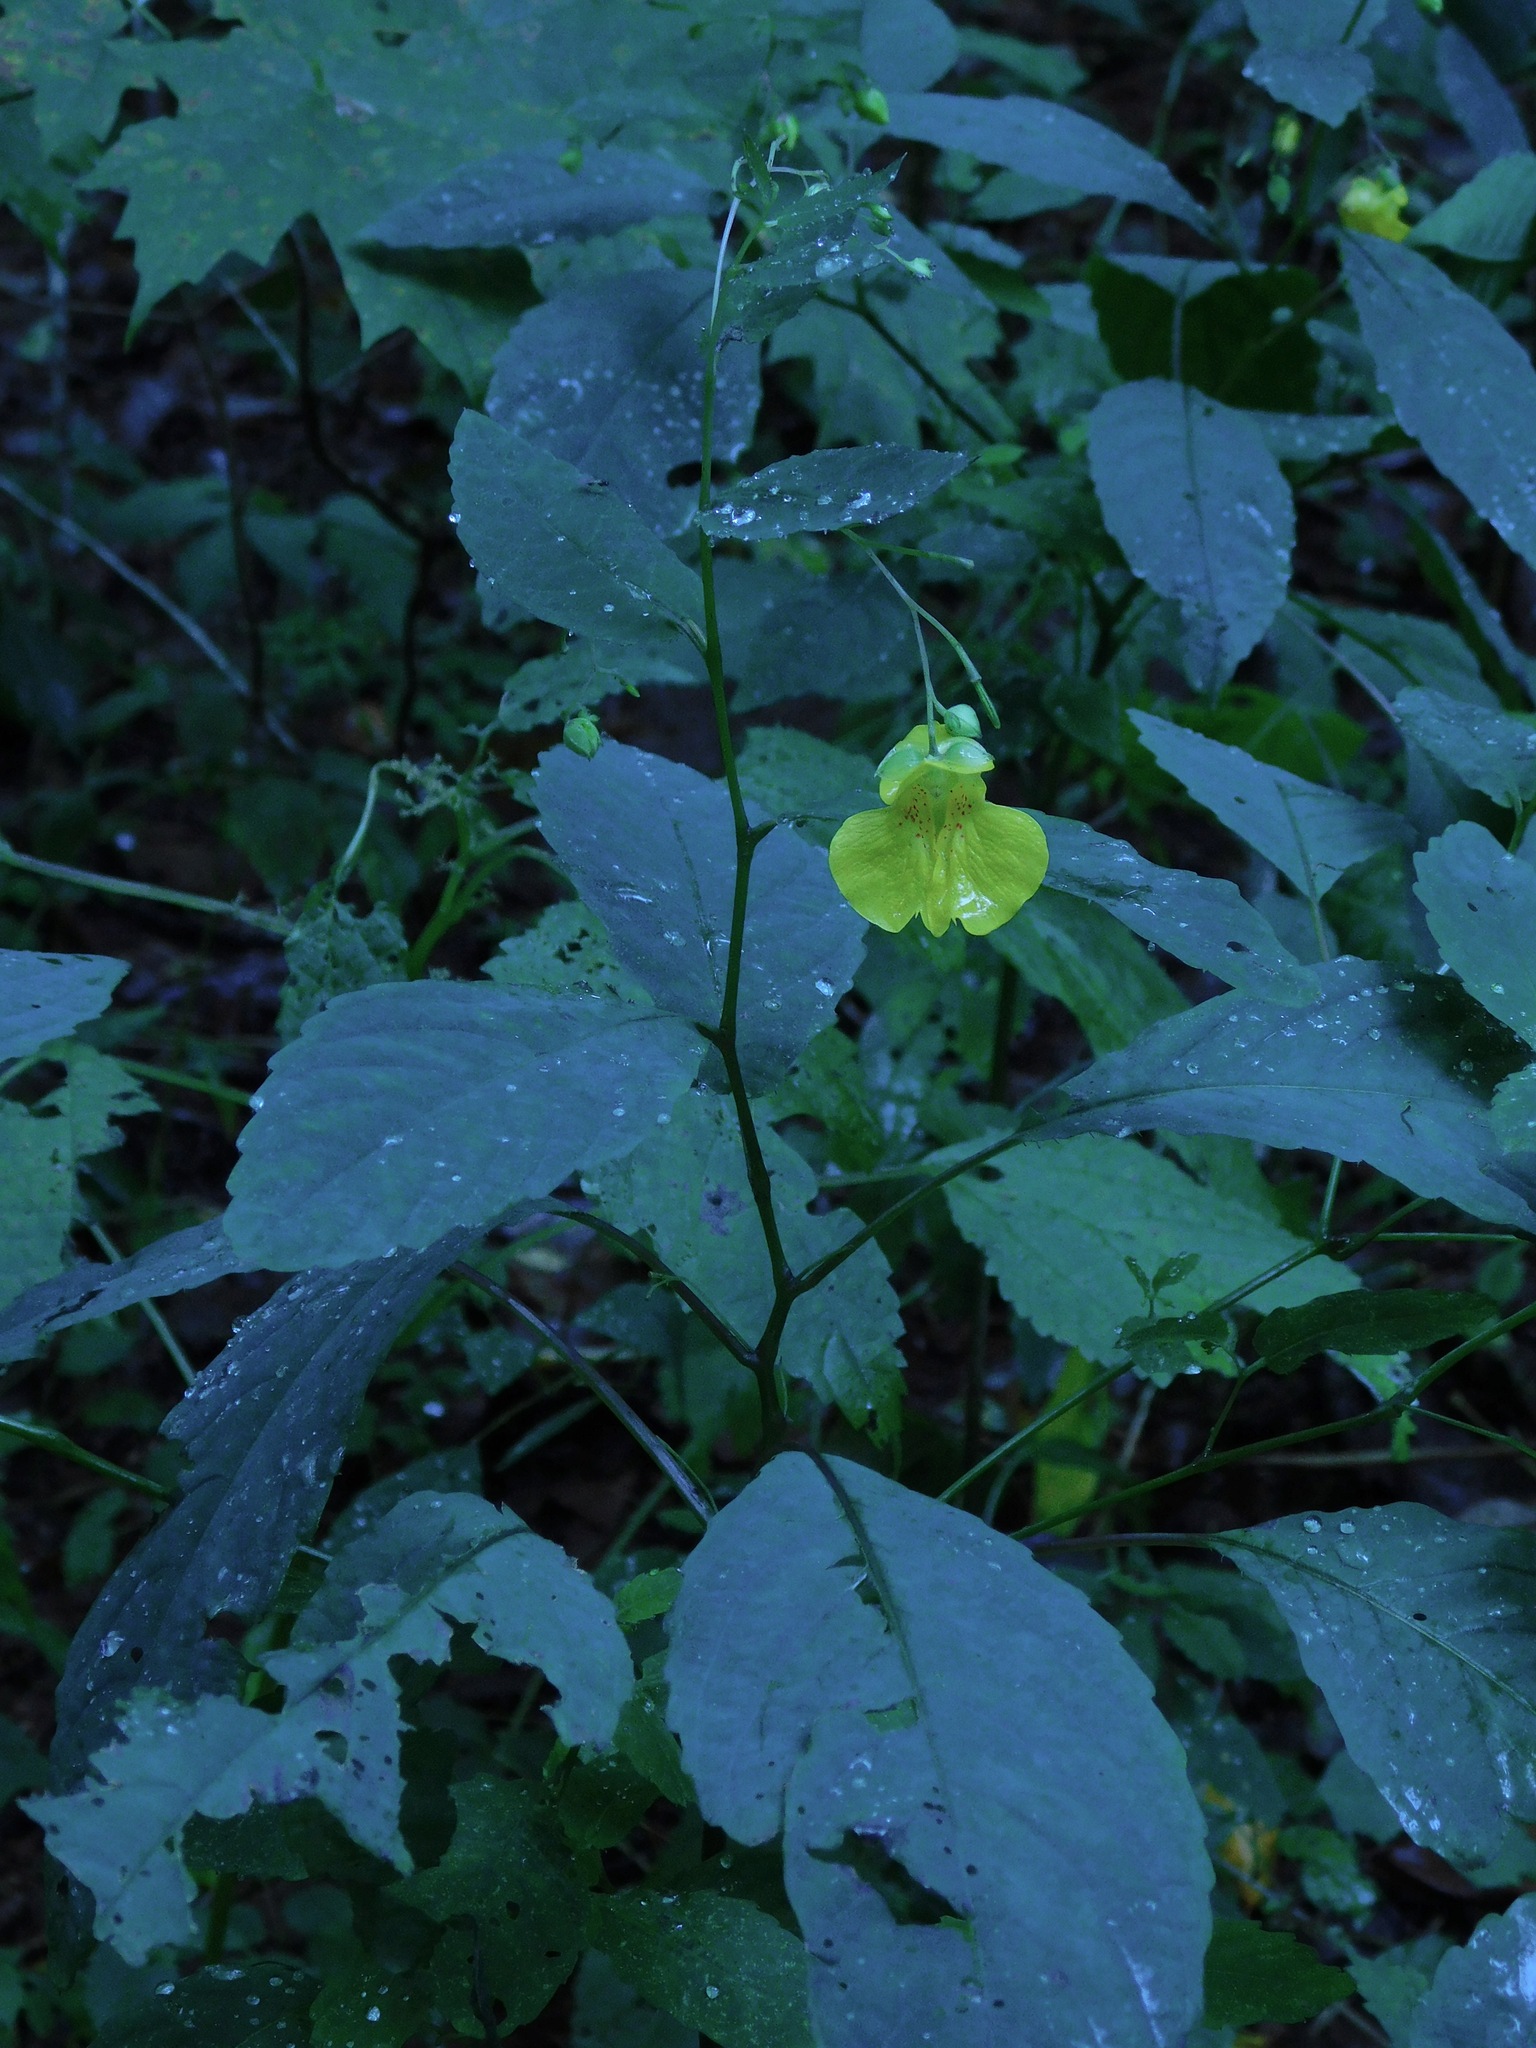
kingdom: Plantae
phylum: Tracheophyta
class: Magnoliopsida
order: Ericales
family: Balsaminaceae
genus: Impatiens
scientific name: Impatiens pallida
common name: Pale snapweed
